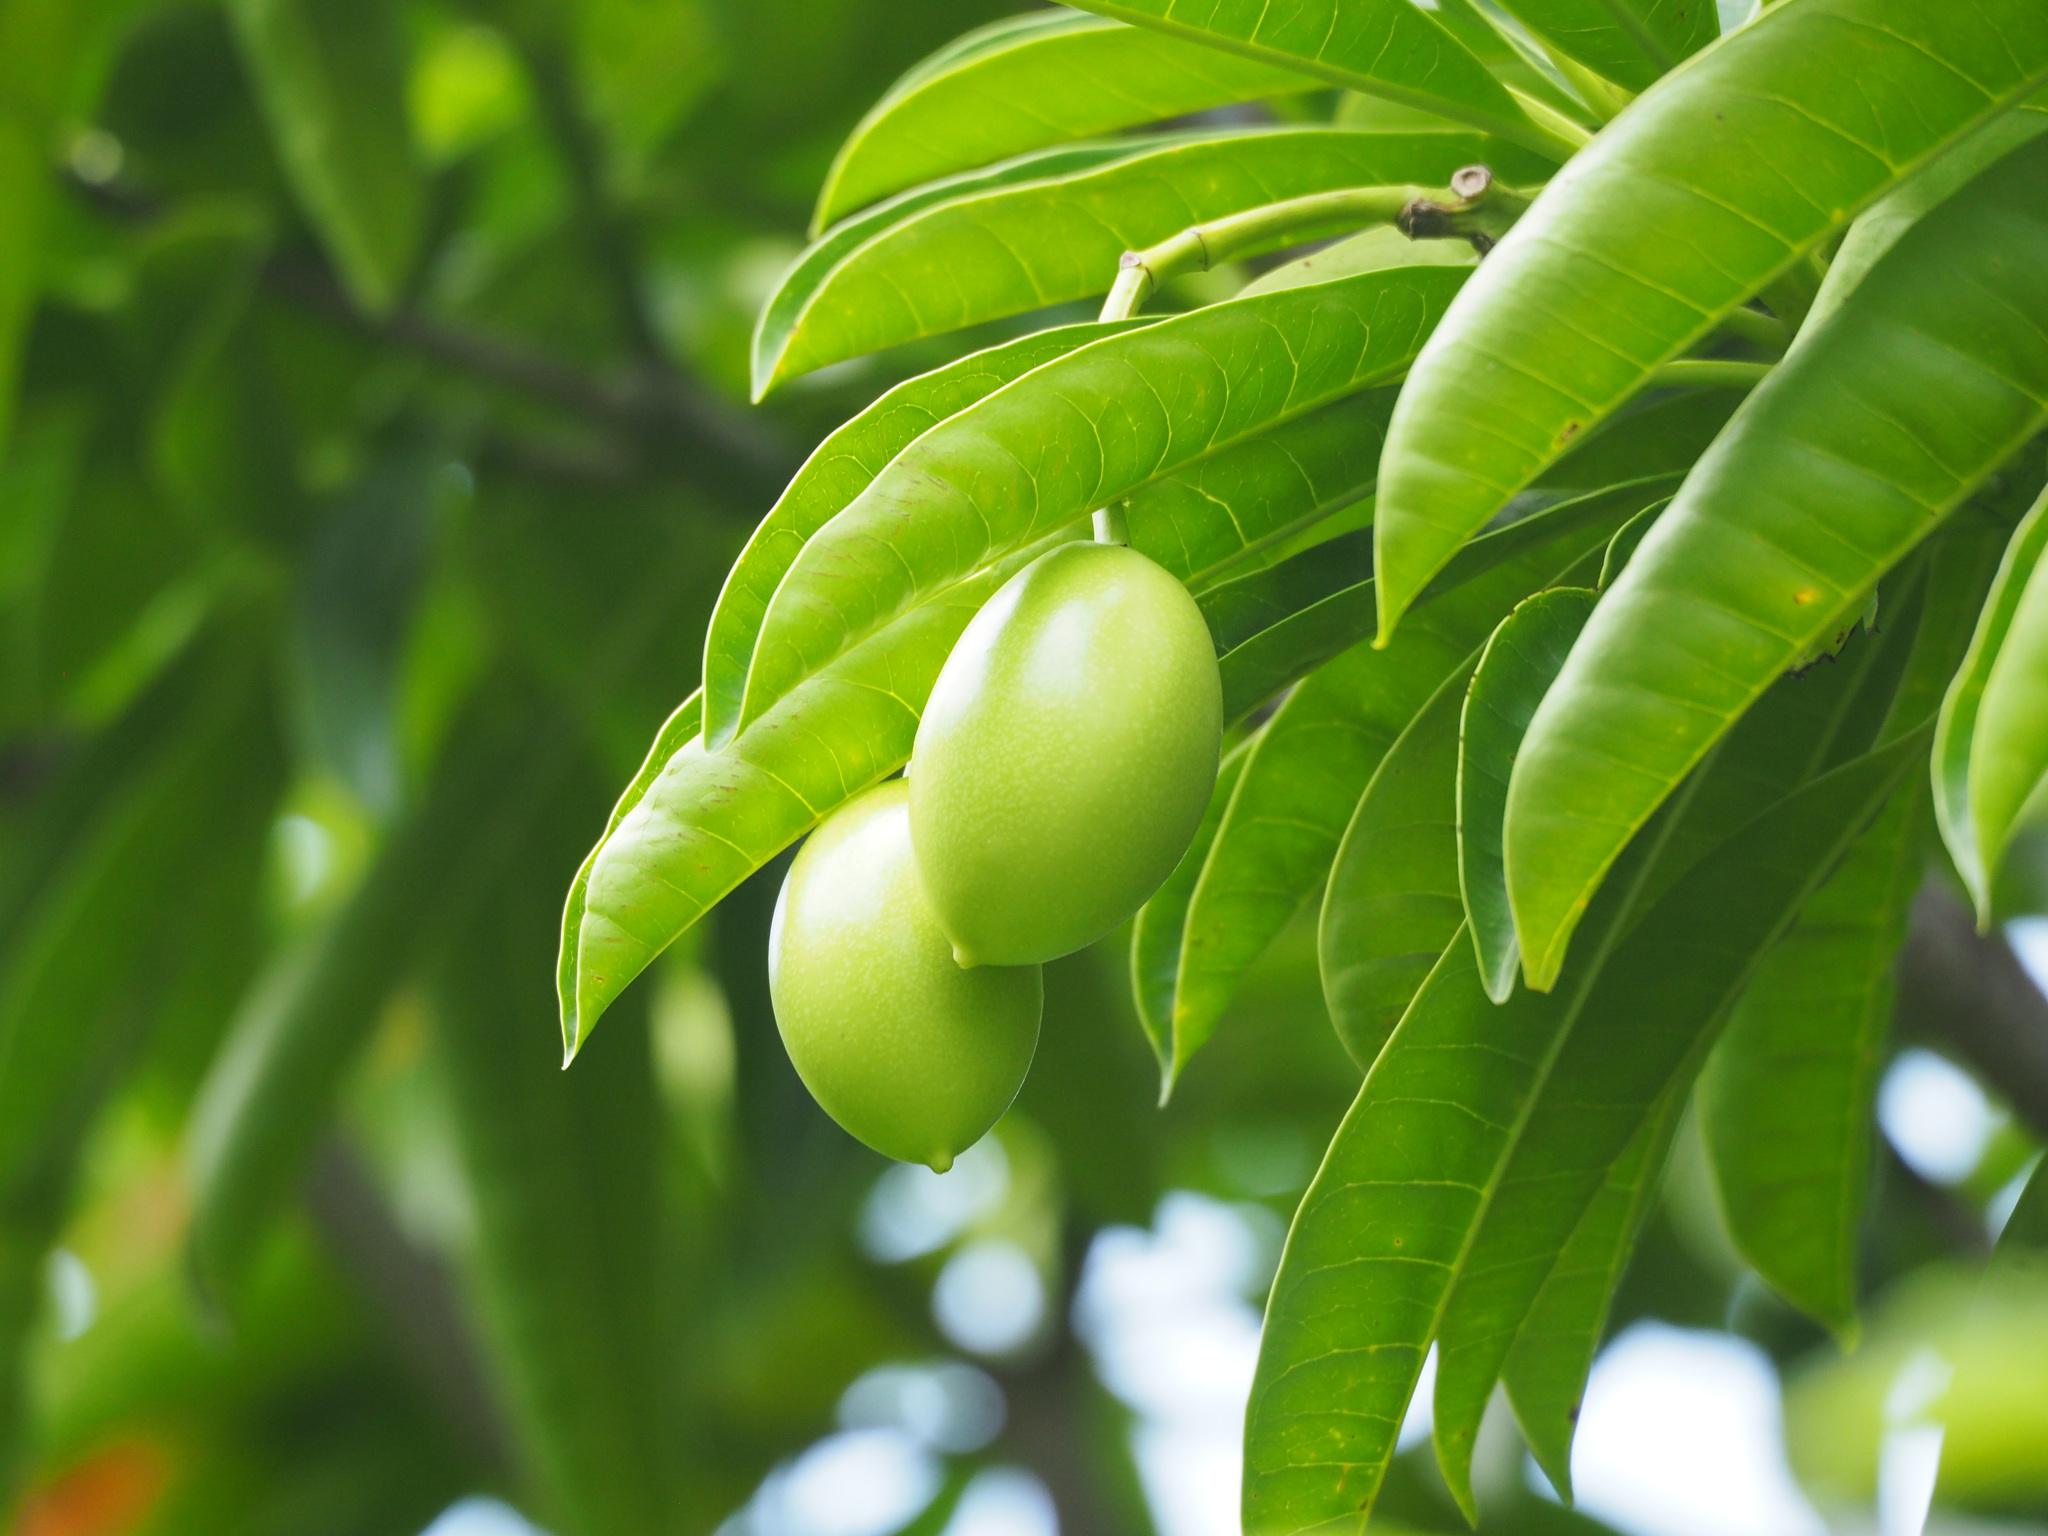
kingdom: Plantae
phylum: Tracheophyta
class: Magnoliopsida
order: Gentianales
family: Apocynaceae
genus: Cerbera
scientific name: Cerbera manghas
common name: Reva
